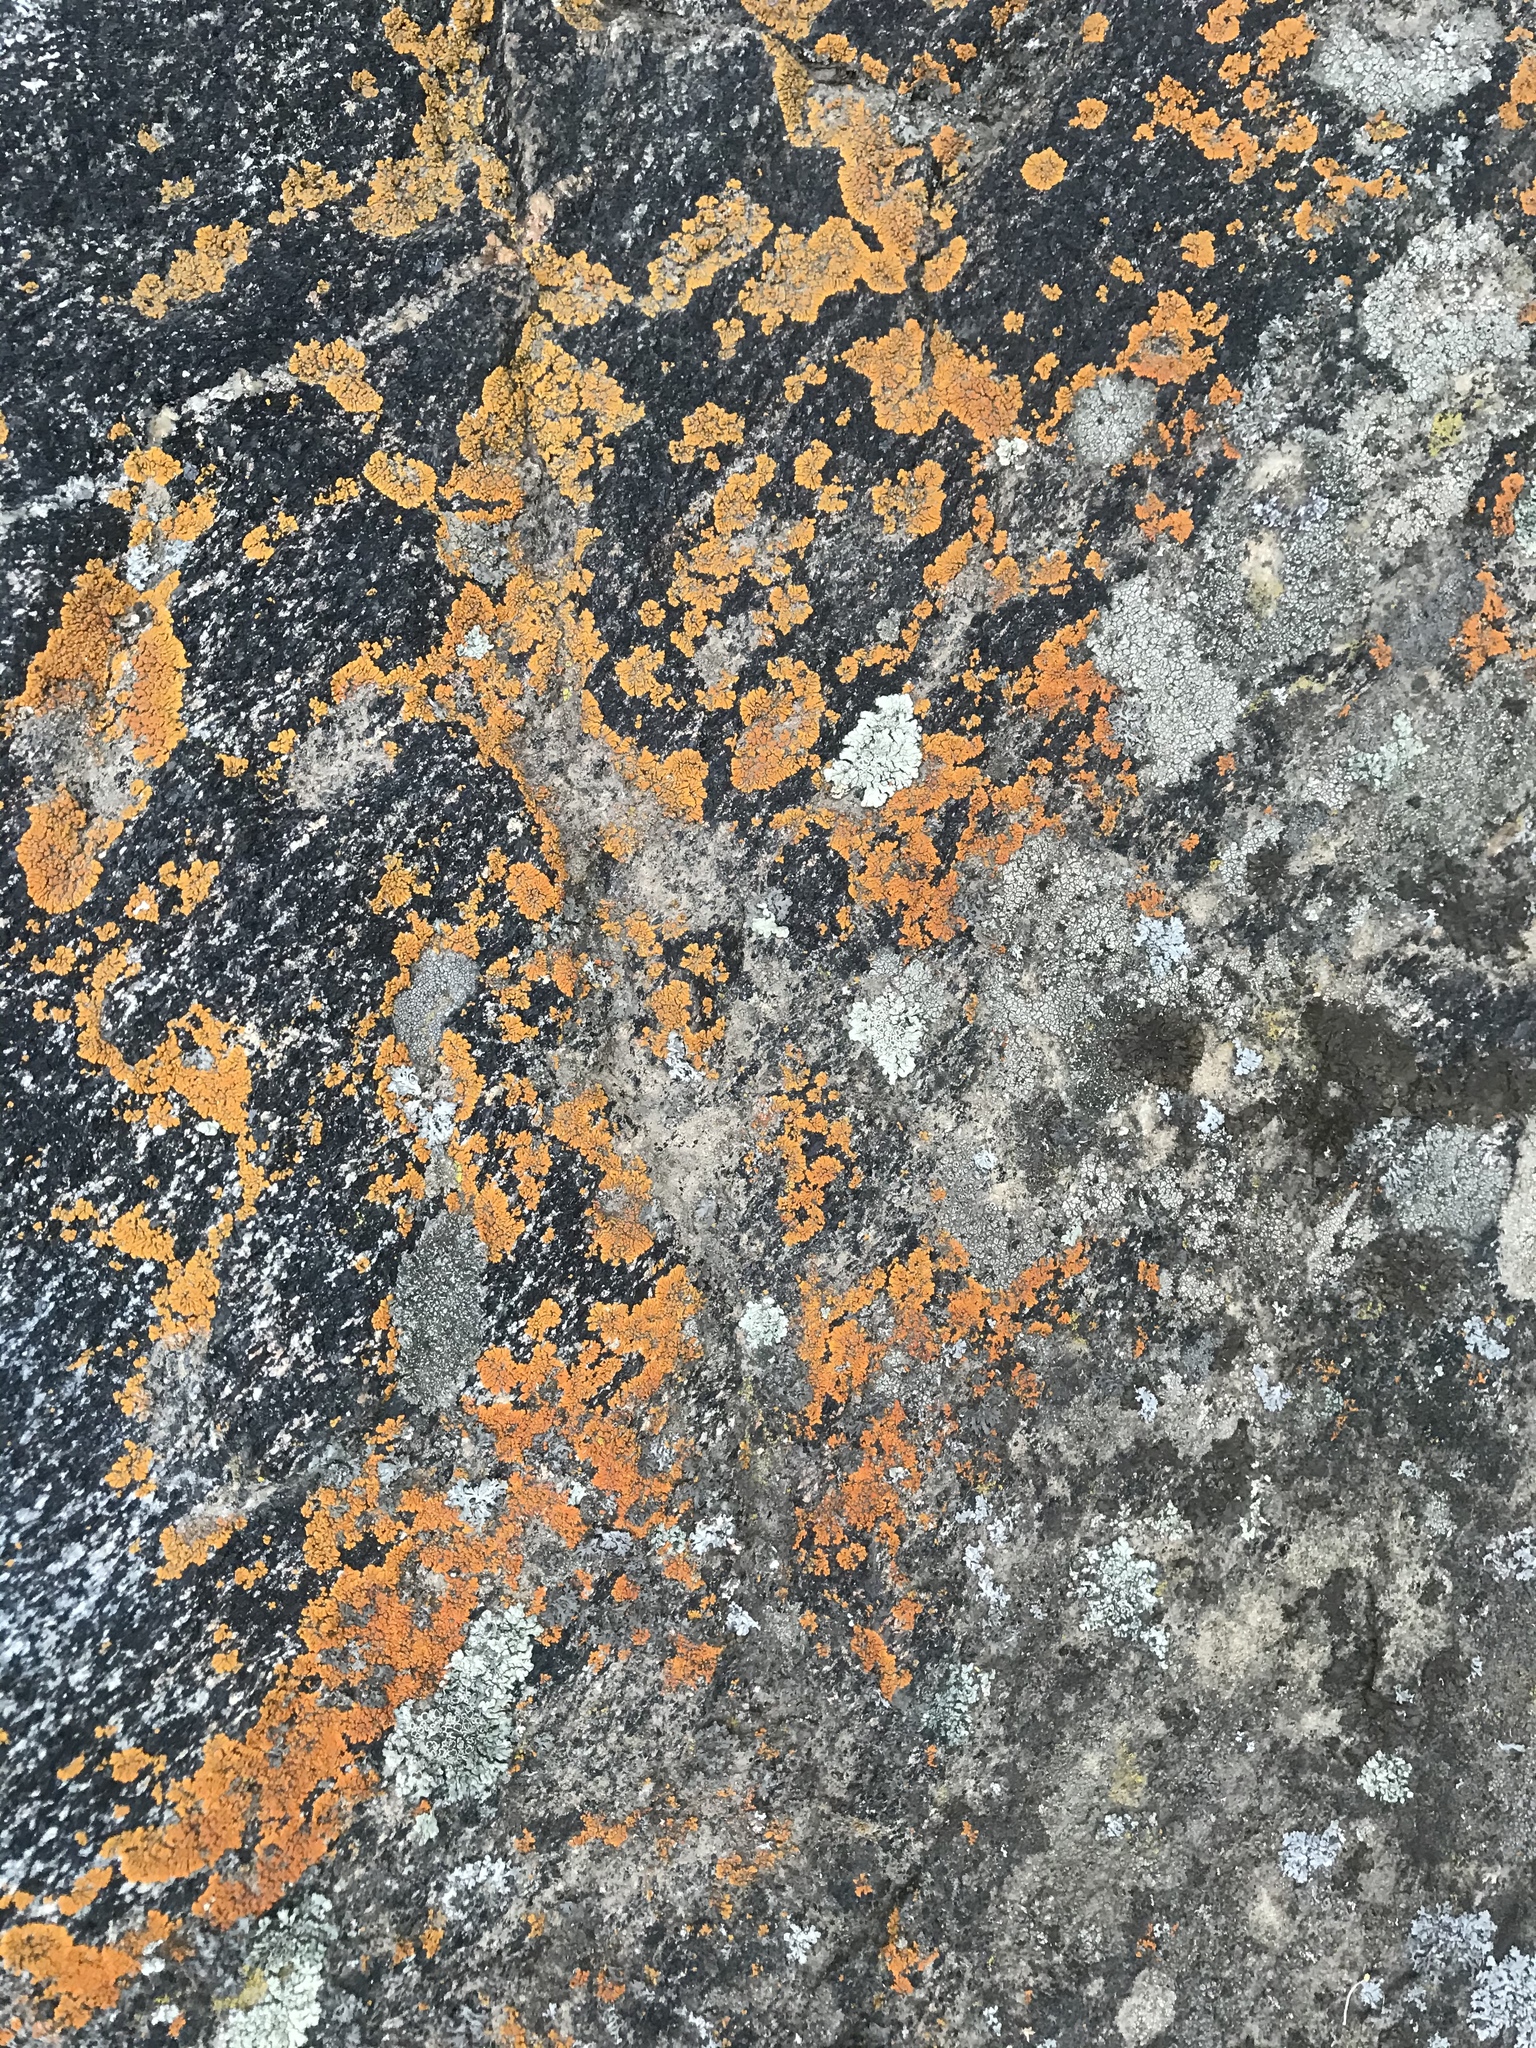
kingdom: Fungi
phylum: Ascomycota
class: Lecanoromycetes
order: Teloschistales
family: Teloschistaceae
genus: Xanthoria
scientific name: Xanthoria elegans
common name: Elegant sunburst lichen
